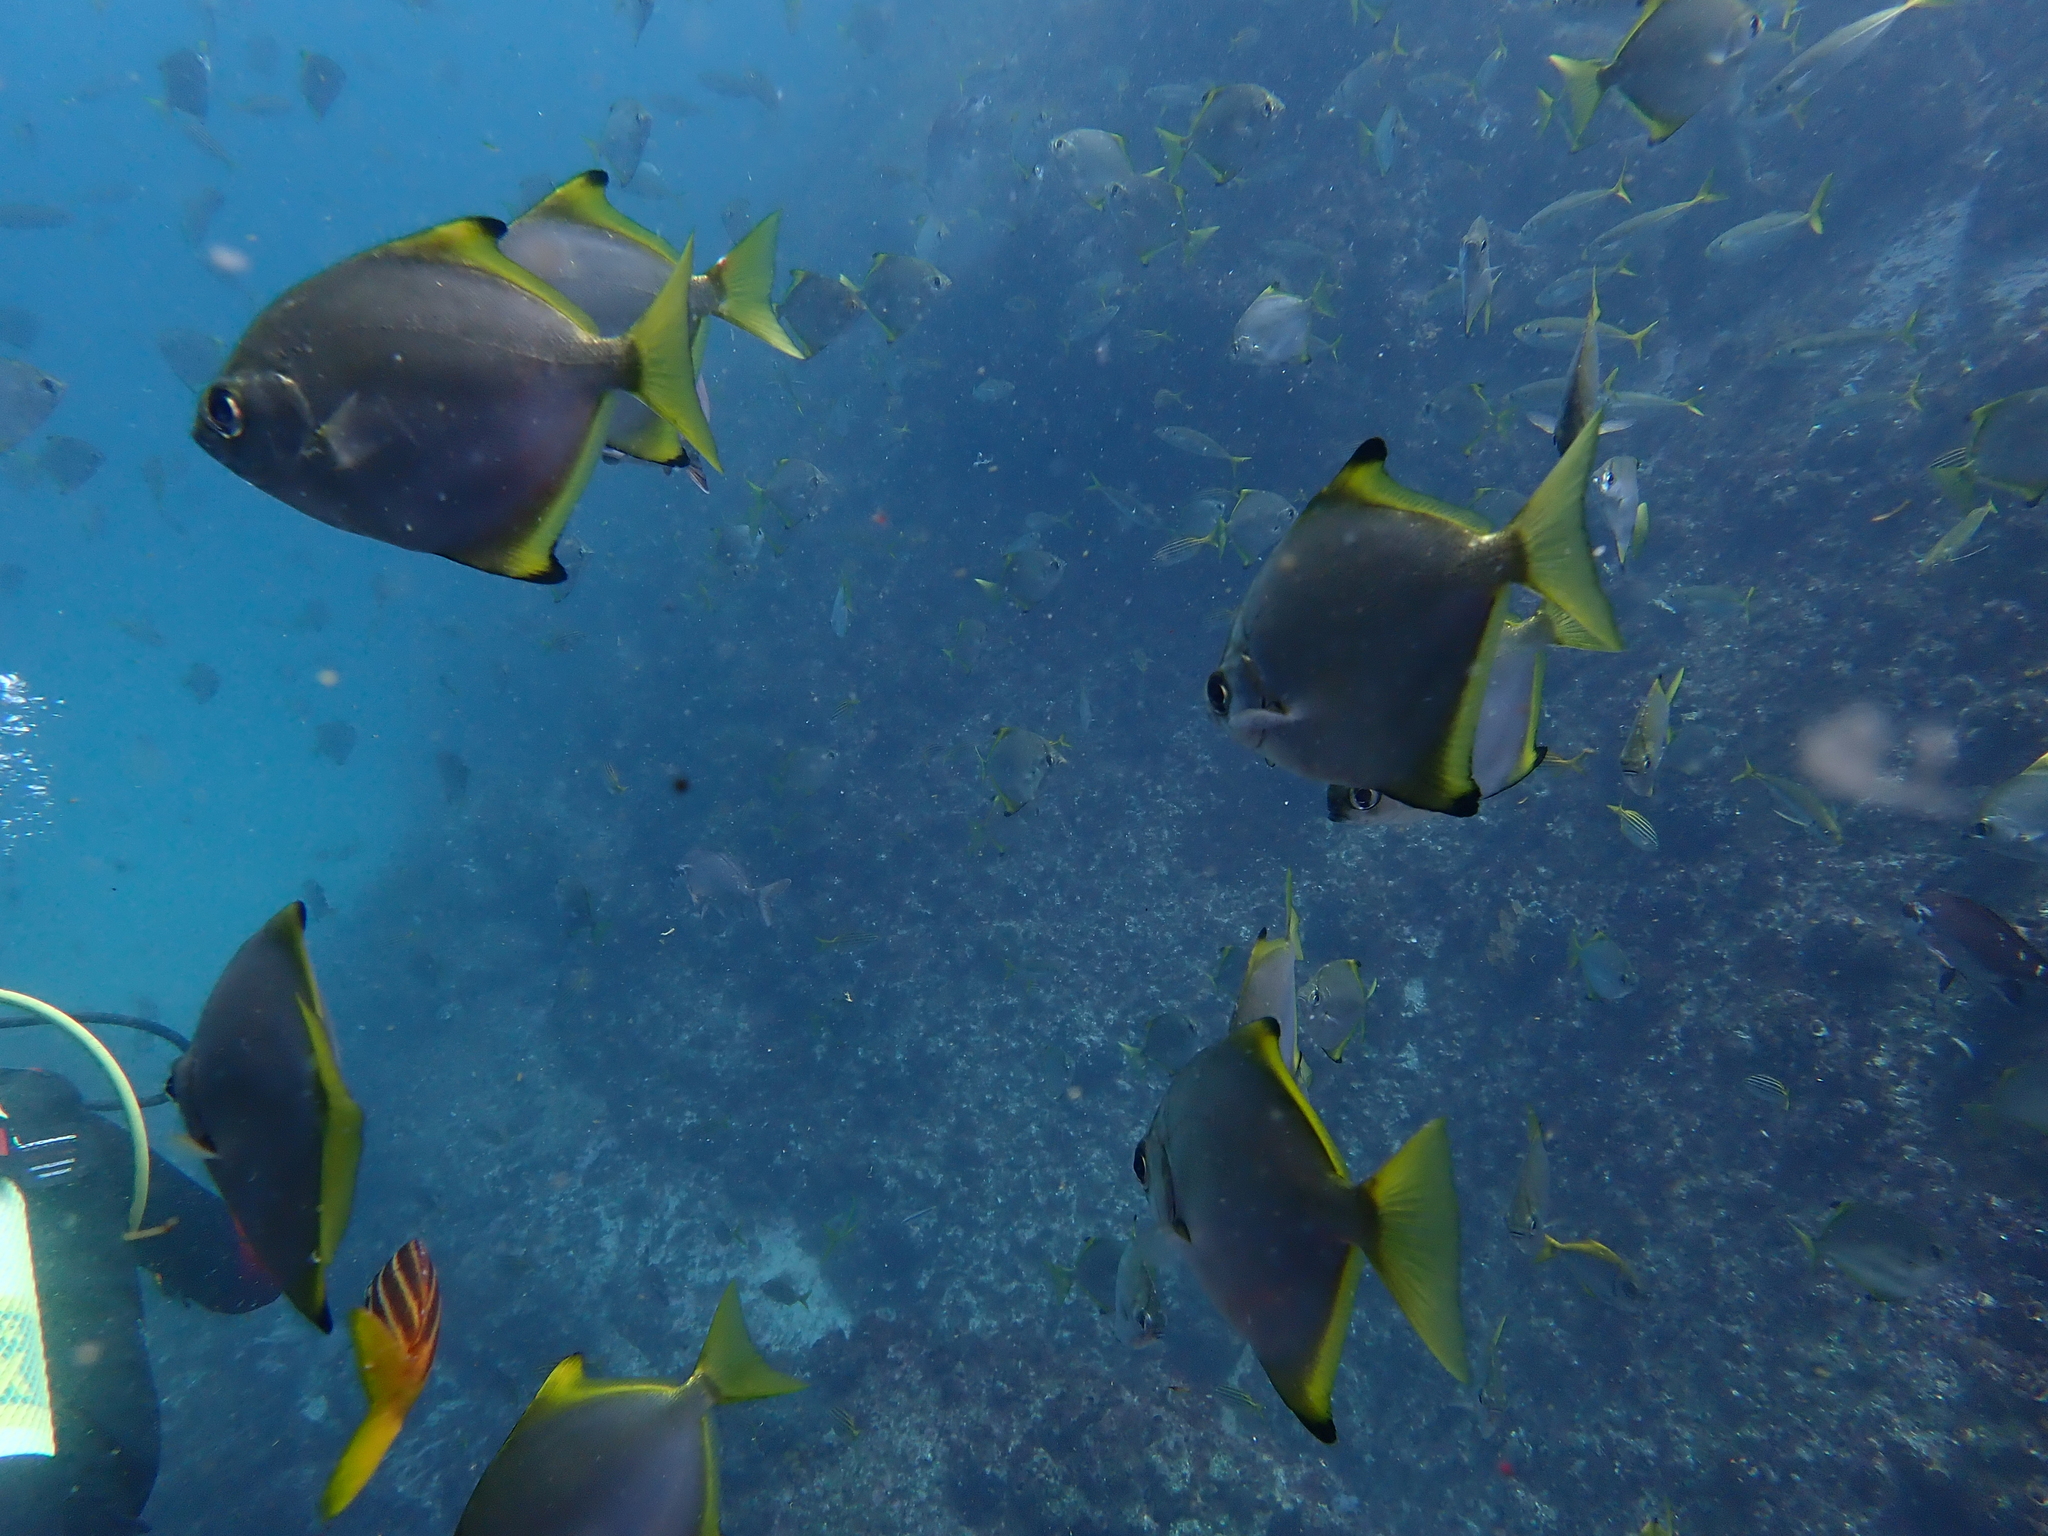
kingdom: Animalia
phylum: Chordata
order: Perciformes
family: Monodactylidae
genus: Monodactylus
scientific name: Monodactylus argenteus
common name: Silver moony
